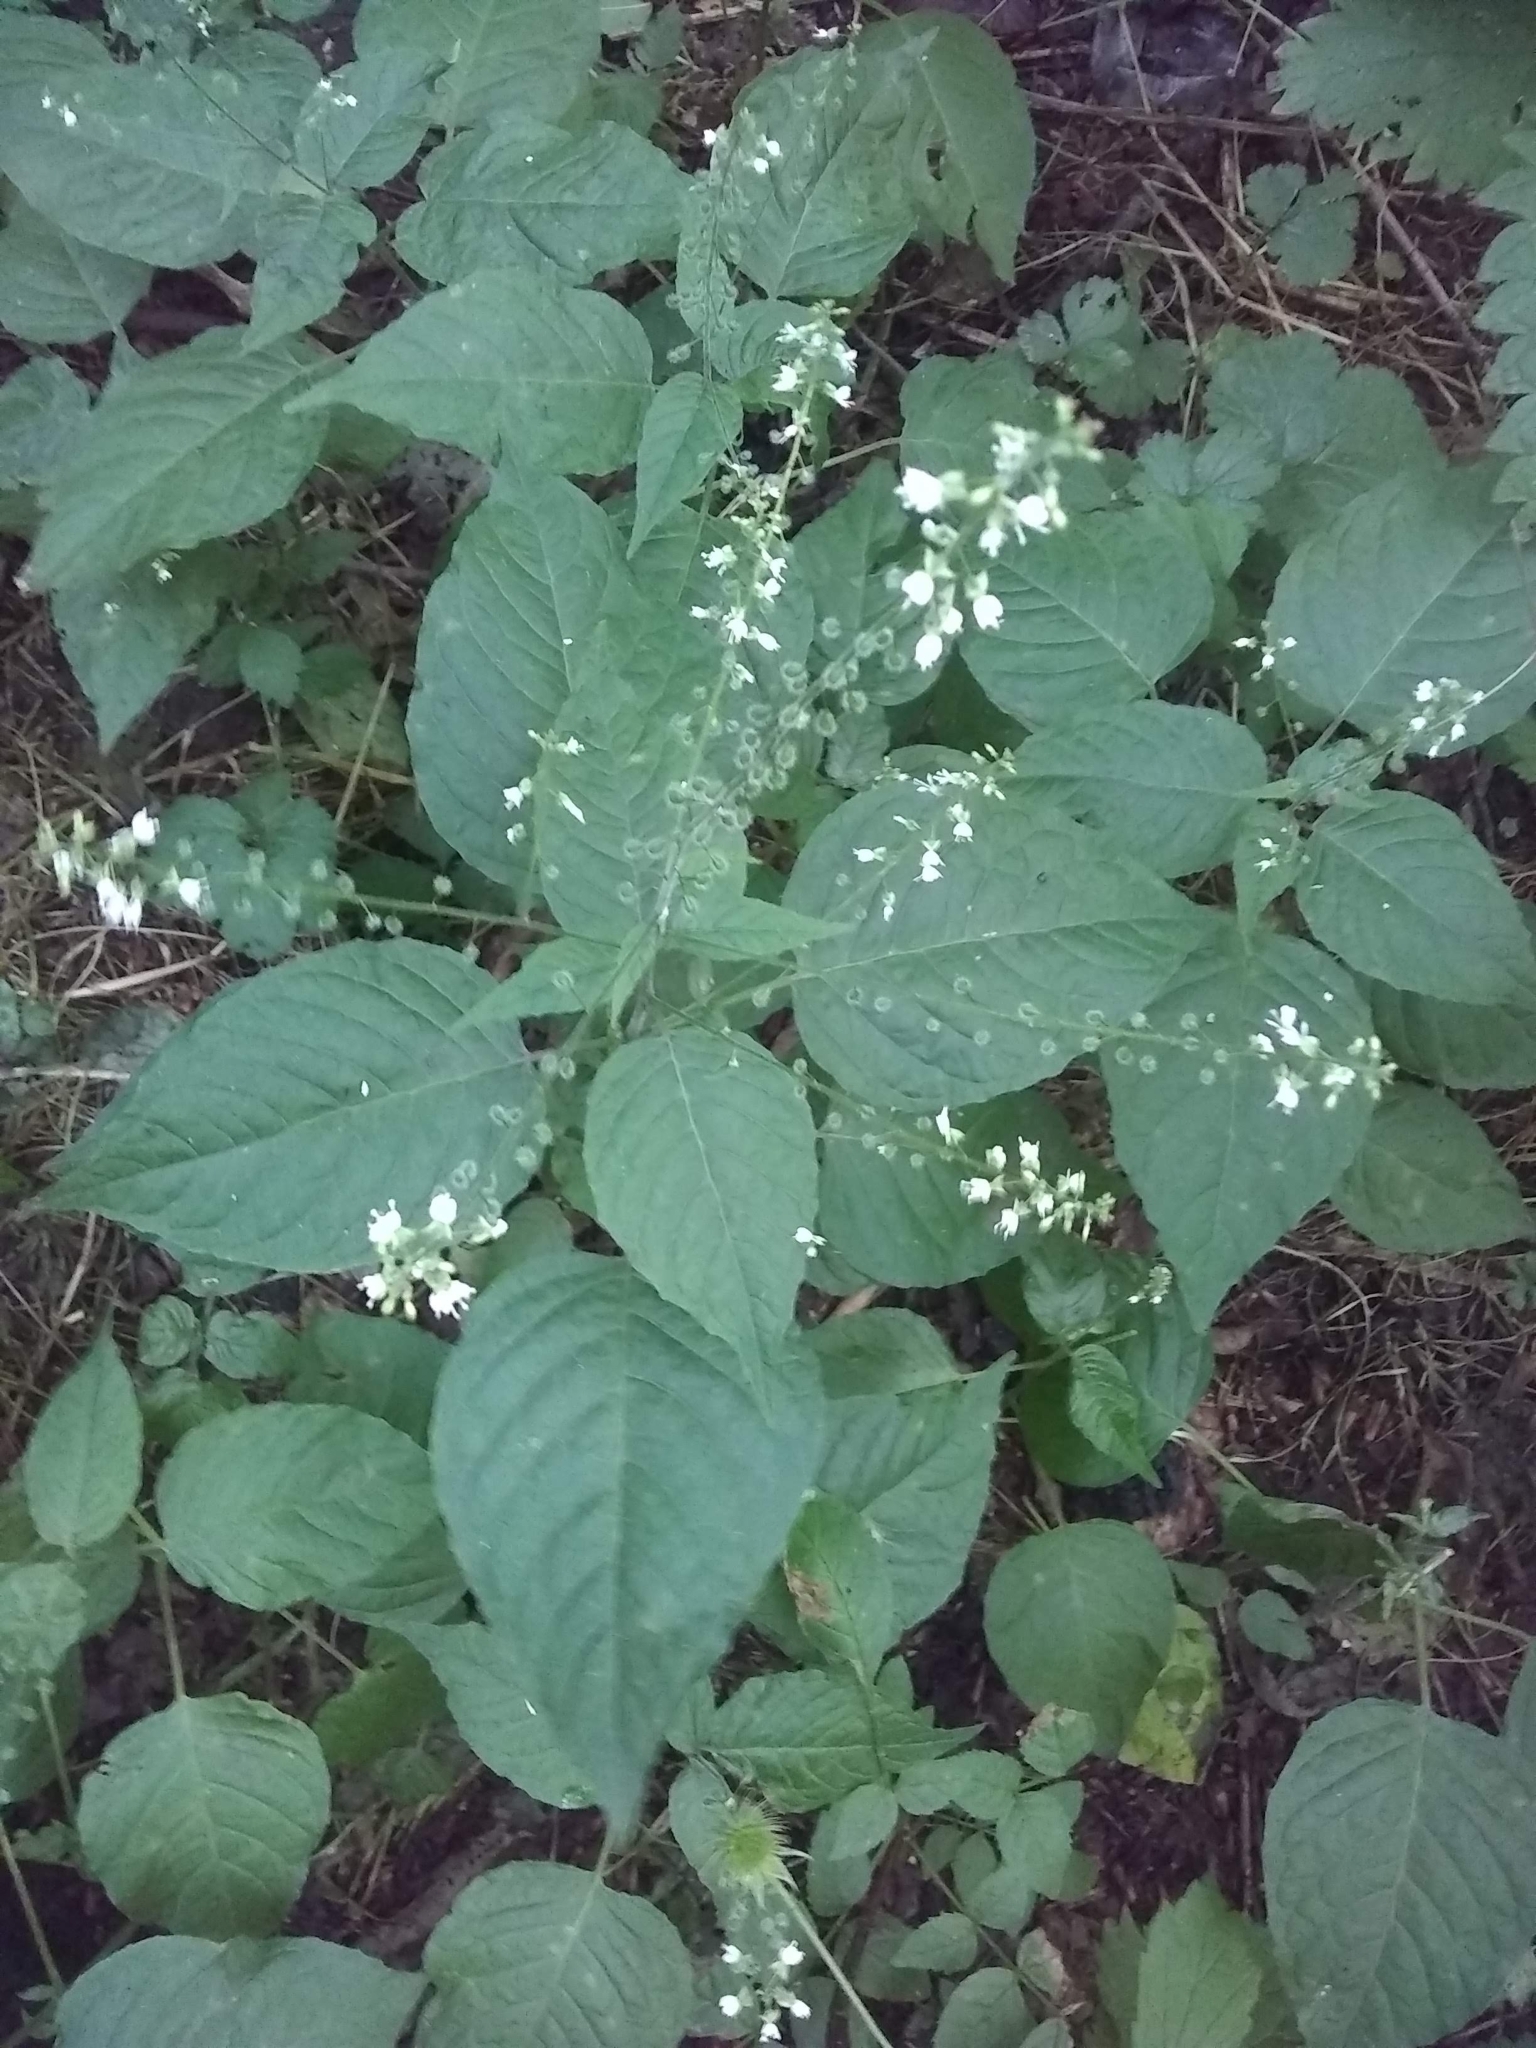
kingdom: Plantae
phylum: Tracheophyta
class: Magnoliopsida
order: Myrtales
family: Onagraceae
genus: Circaea
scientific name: Circaea lutetiana
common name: Enchanter's-nightshade
